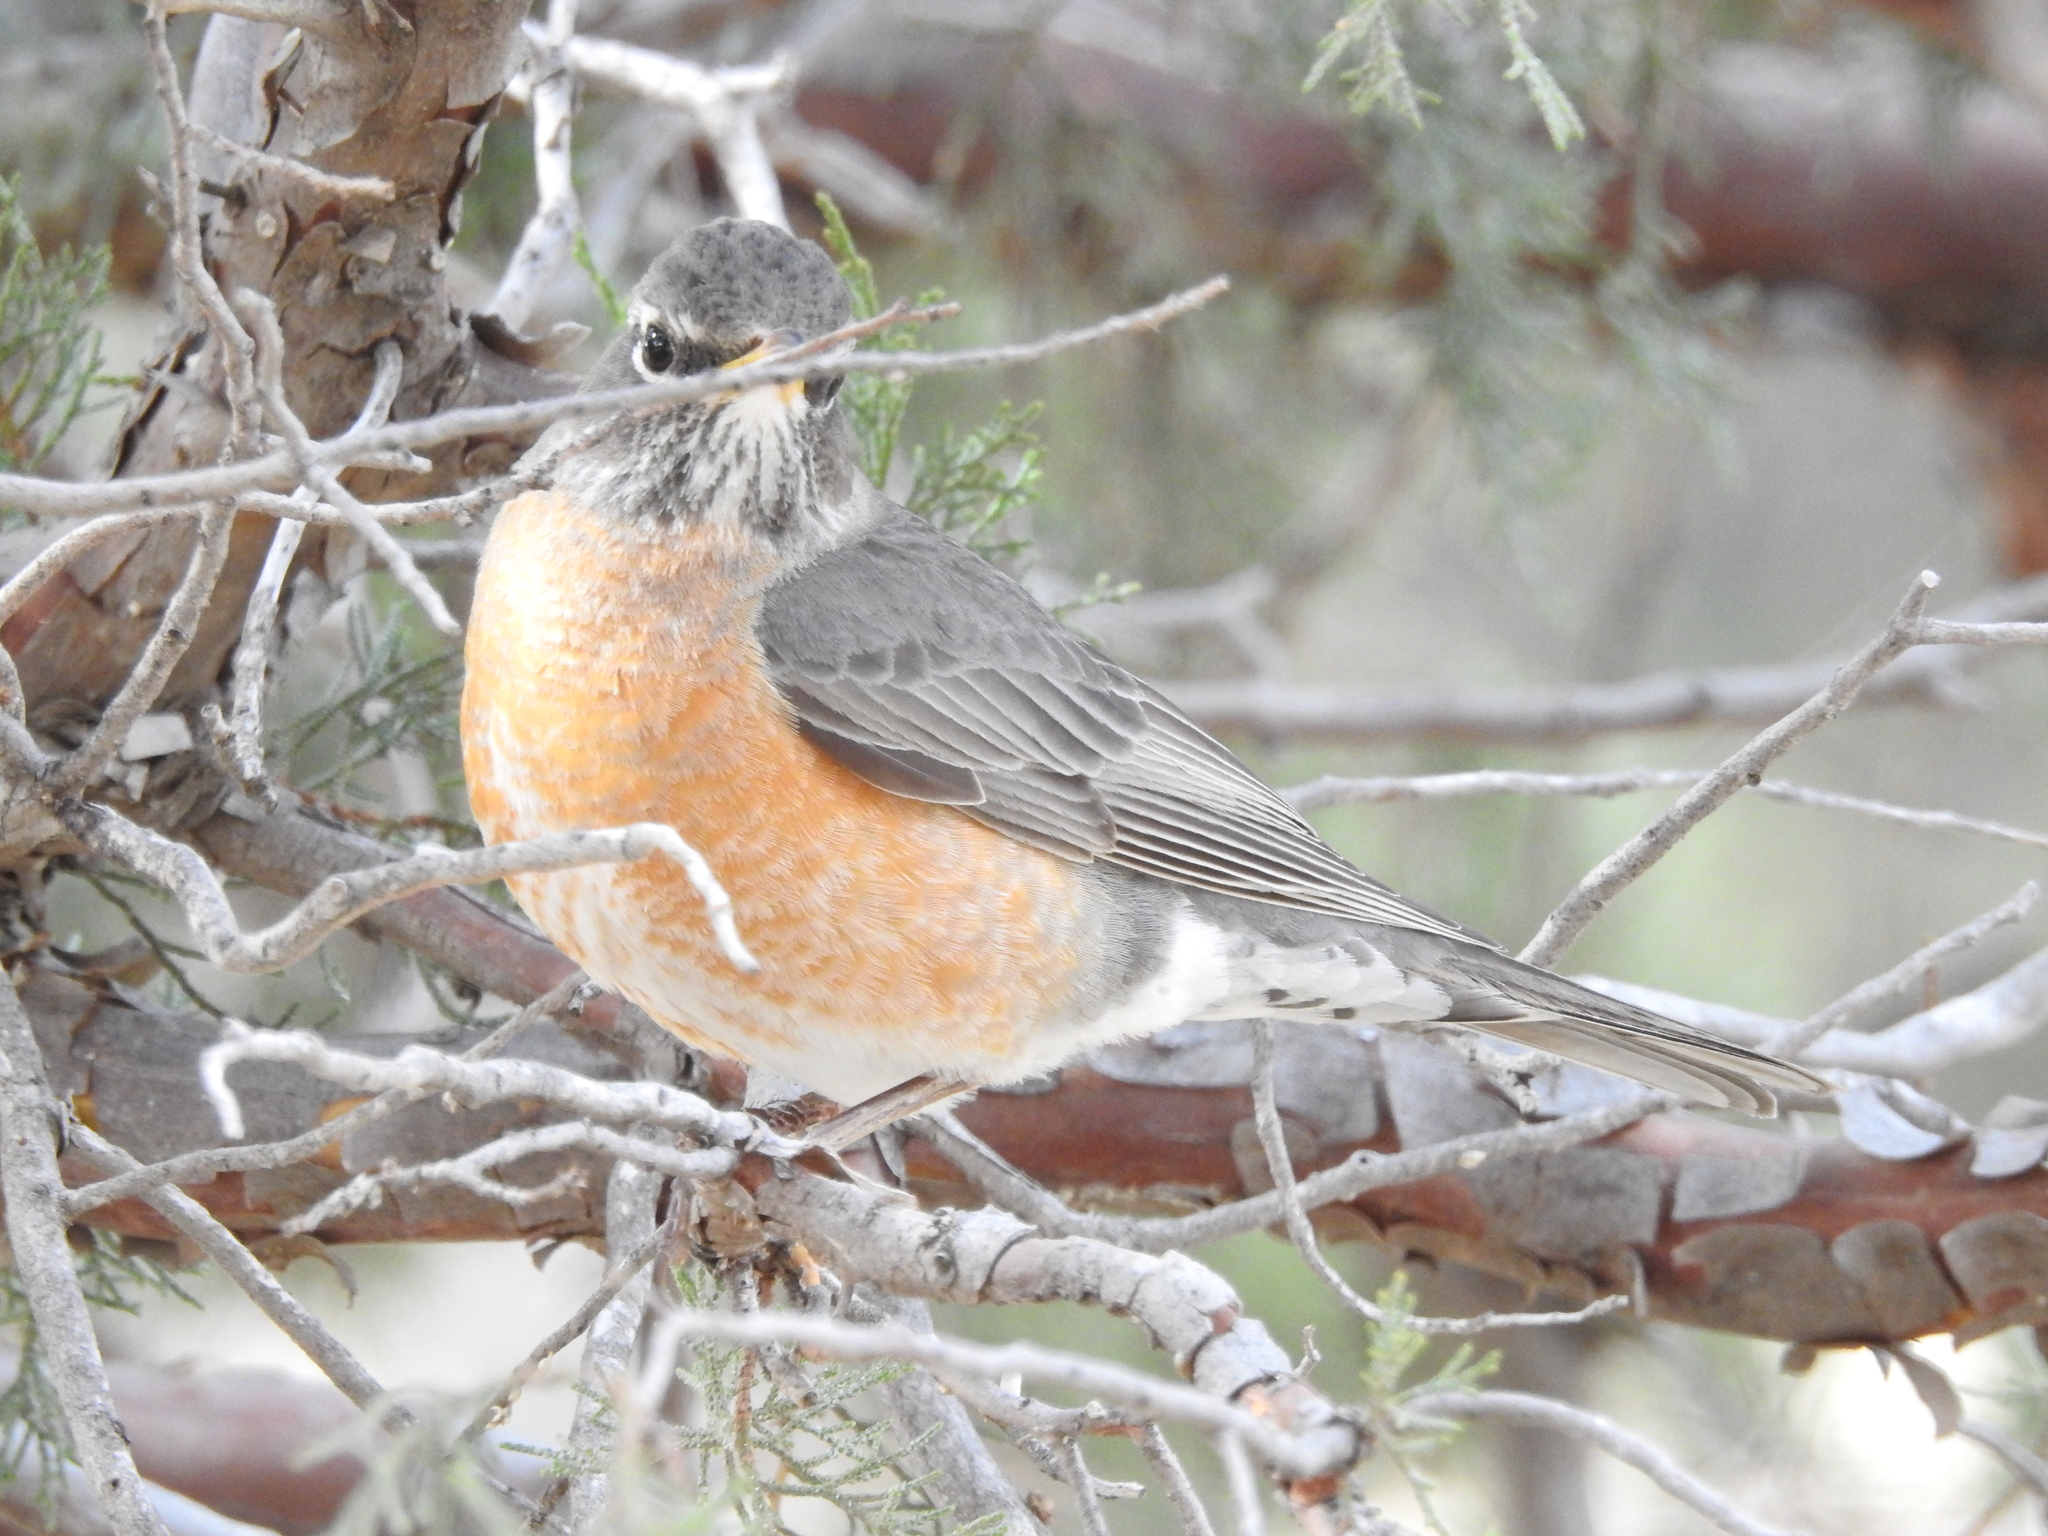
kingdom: Animalia
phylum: Chordata
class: Aves
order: Passeriformes
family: Turdidae
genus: Turdus
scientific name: Turdus migratorius
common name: American robin
